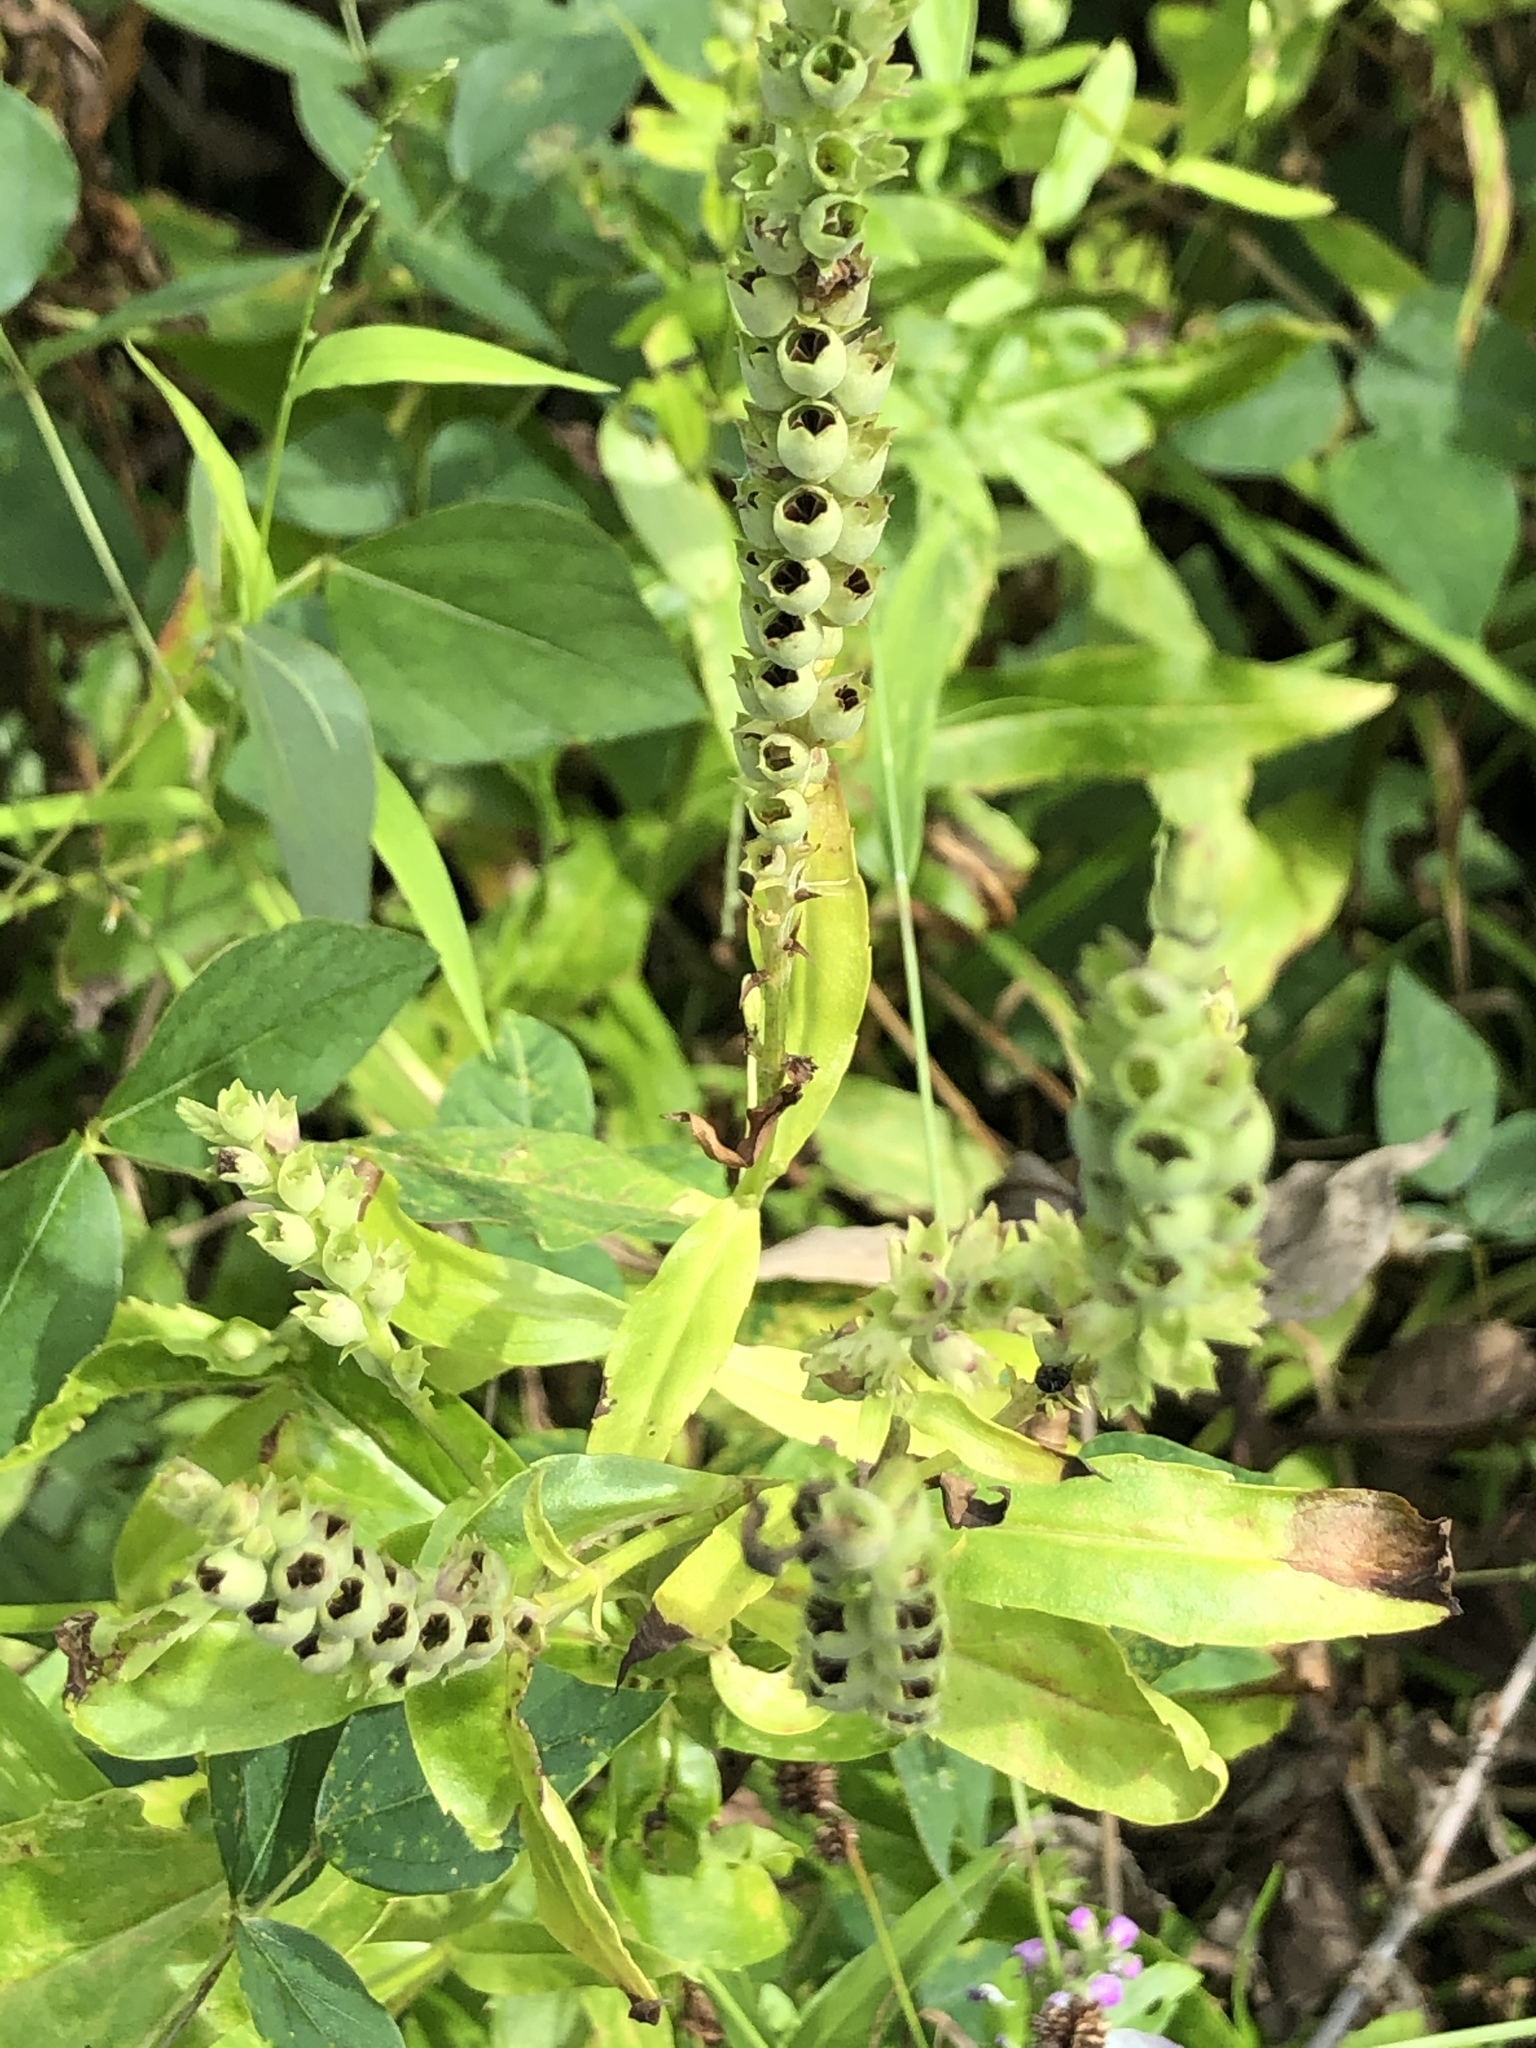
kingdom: Plantae
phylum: Tracheophyta
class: Magnoliopsida
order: Lamiales
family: Lamiaceae
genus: Physostegia
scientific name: Physostegia virginiana
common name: Obedient-plant
